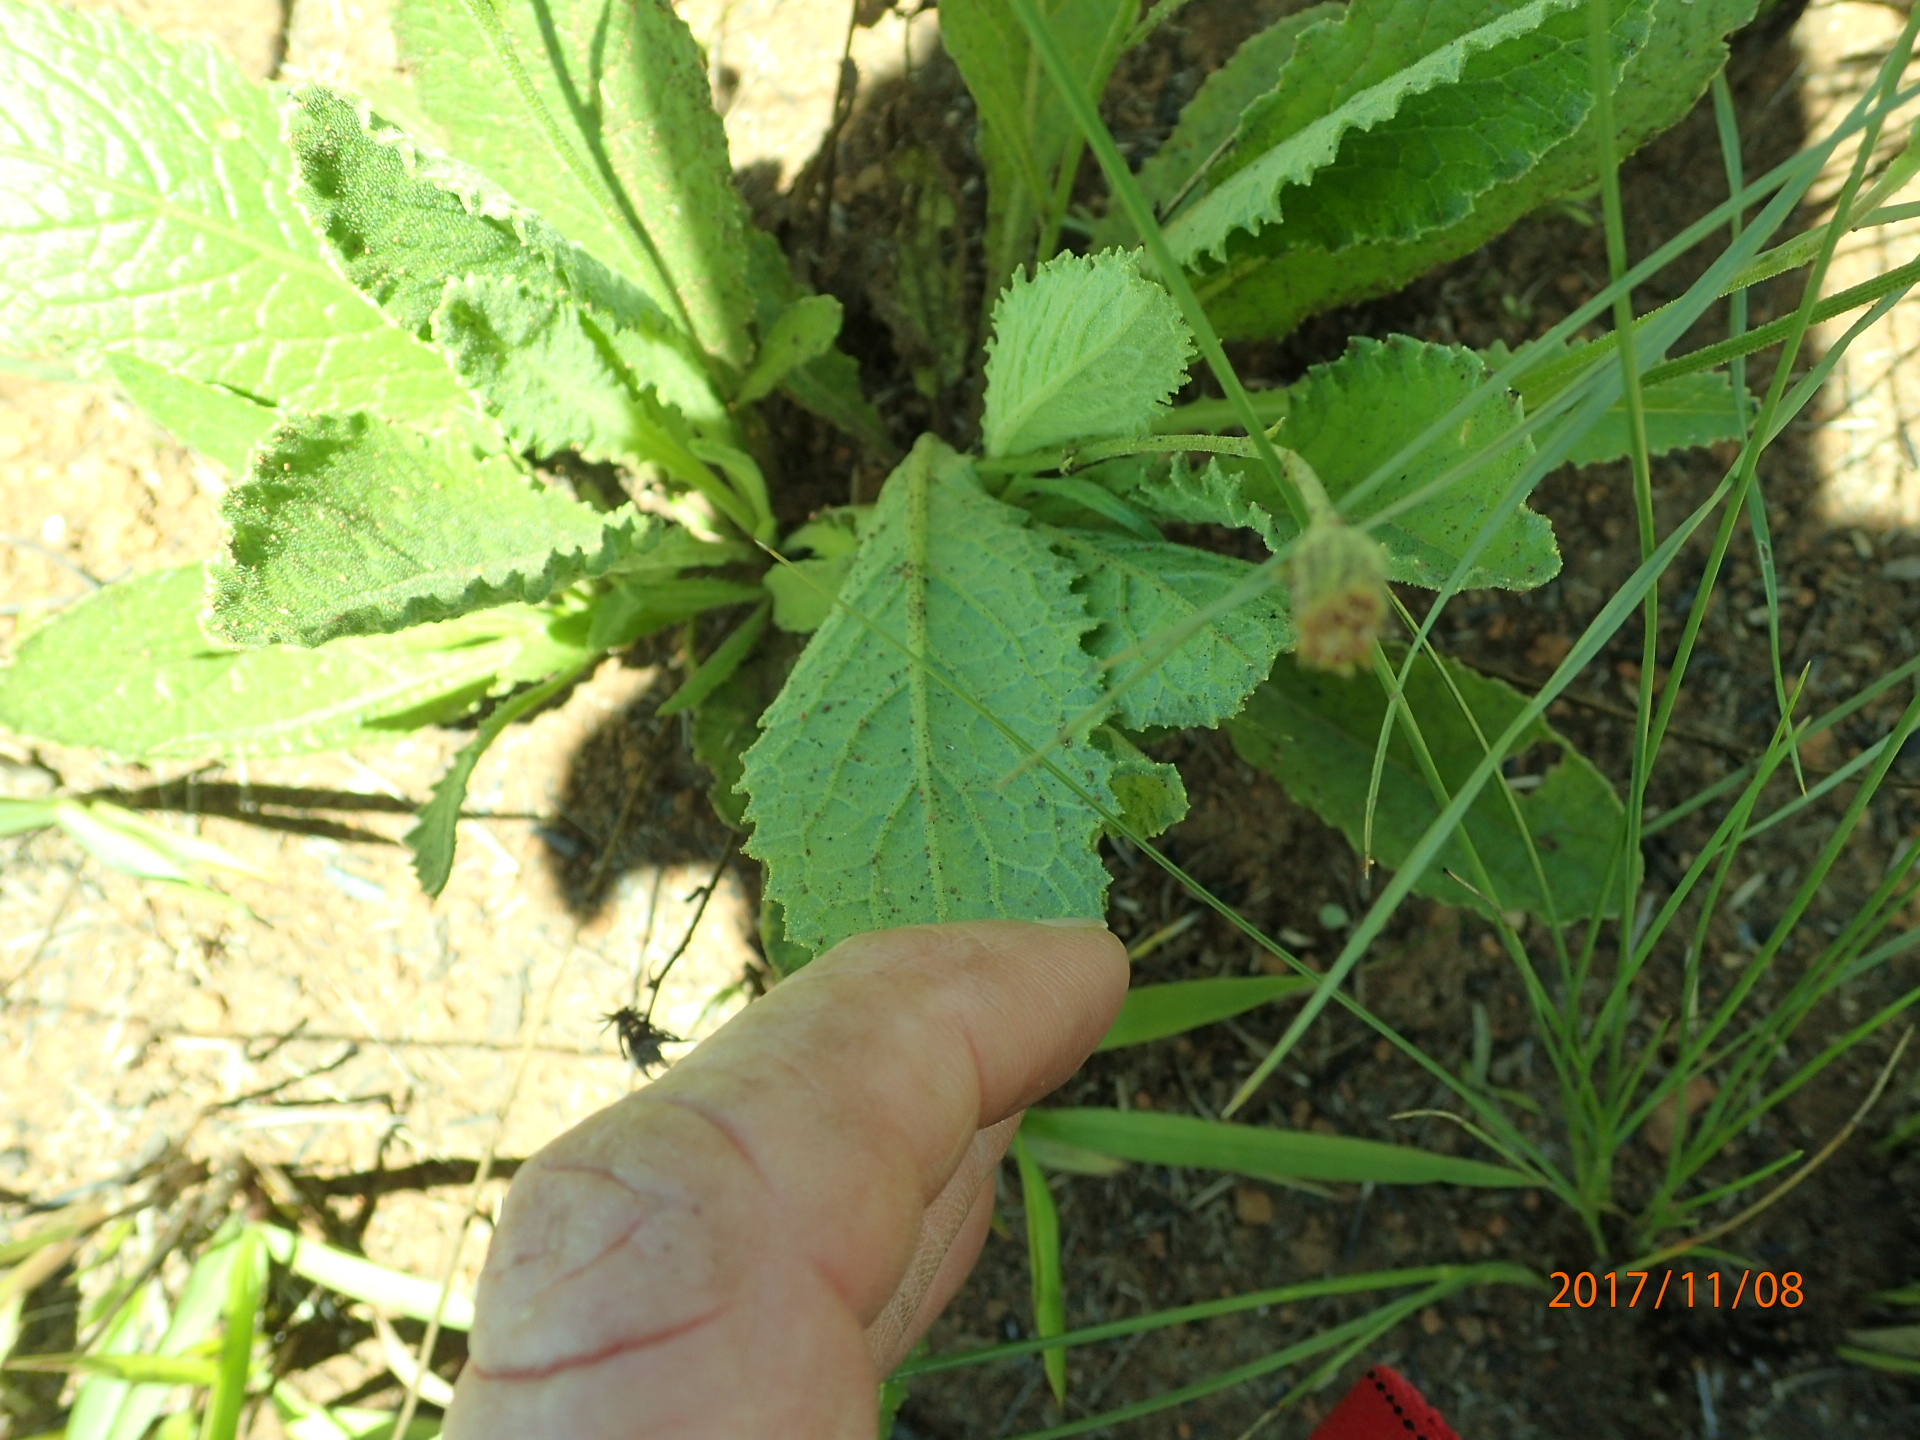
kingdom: Plantae
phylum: Tracheophyta
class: Magnoliopsida
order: Asterales
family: Asteraceae
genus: Senecio
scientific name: Senecio variabilis
